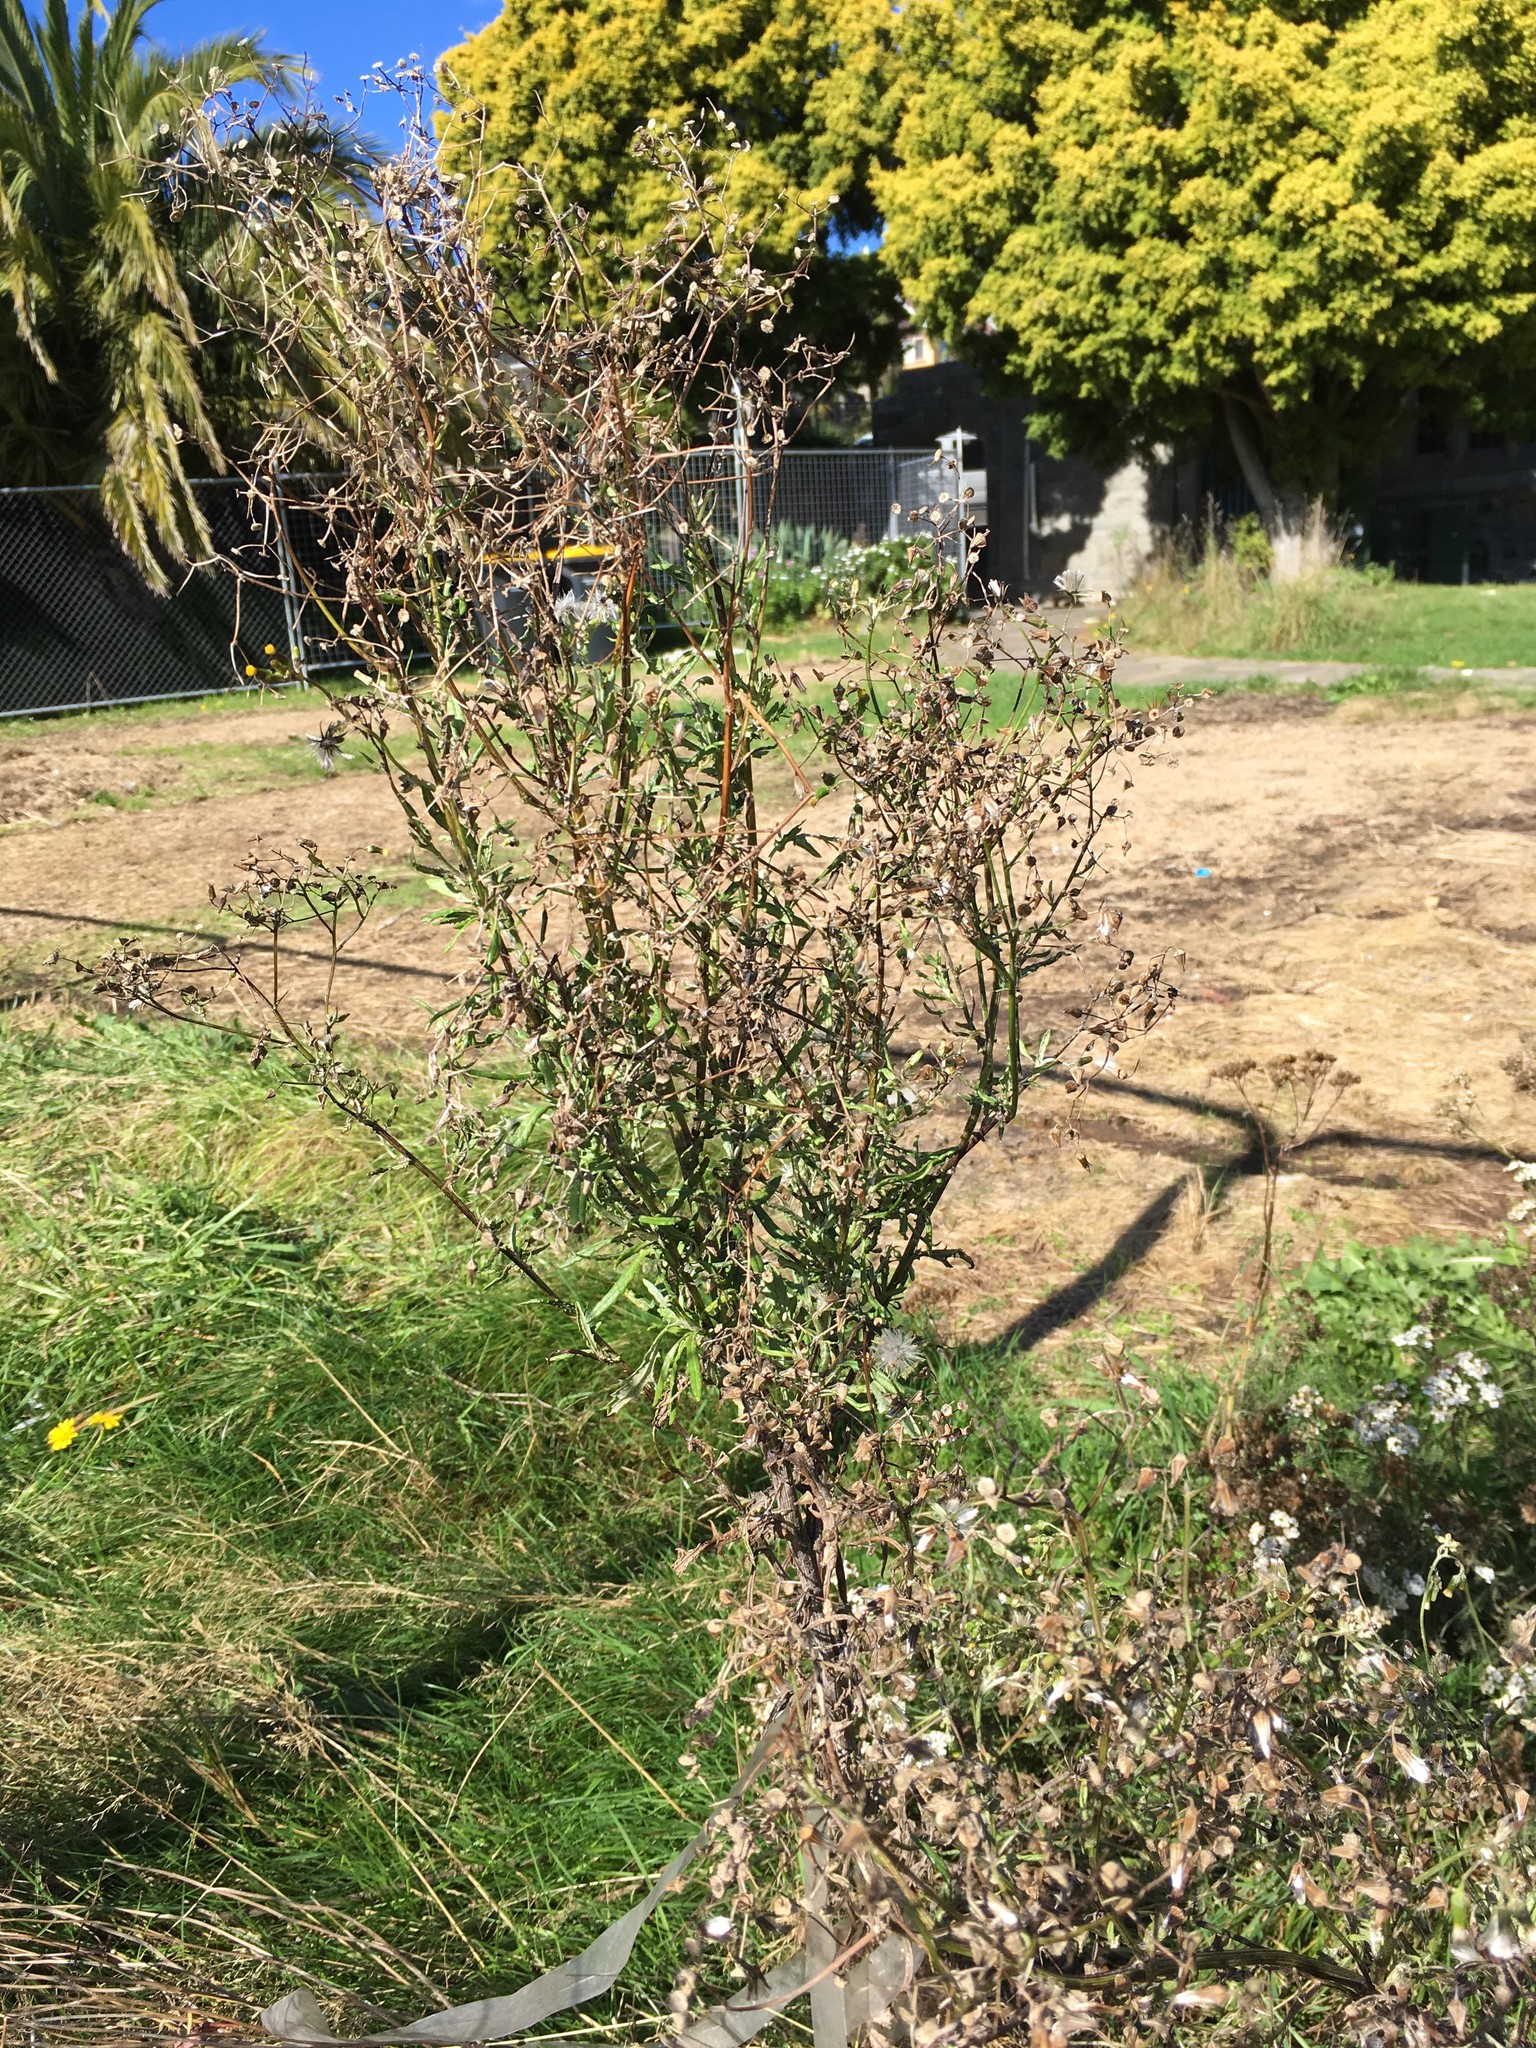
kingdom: Plantae
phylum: Tracheophyta
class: Magnoliopsida
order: Asterales
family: Asteraceae
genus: Senecio
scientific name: Senecio glomeratus
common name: Cutleaf burnweed
